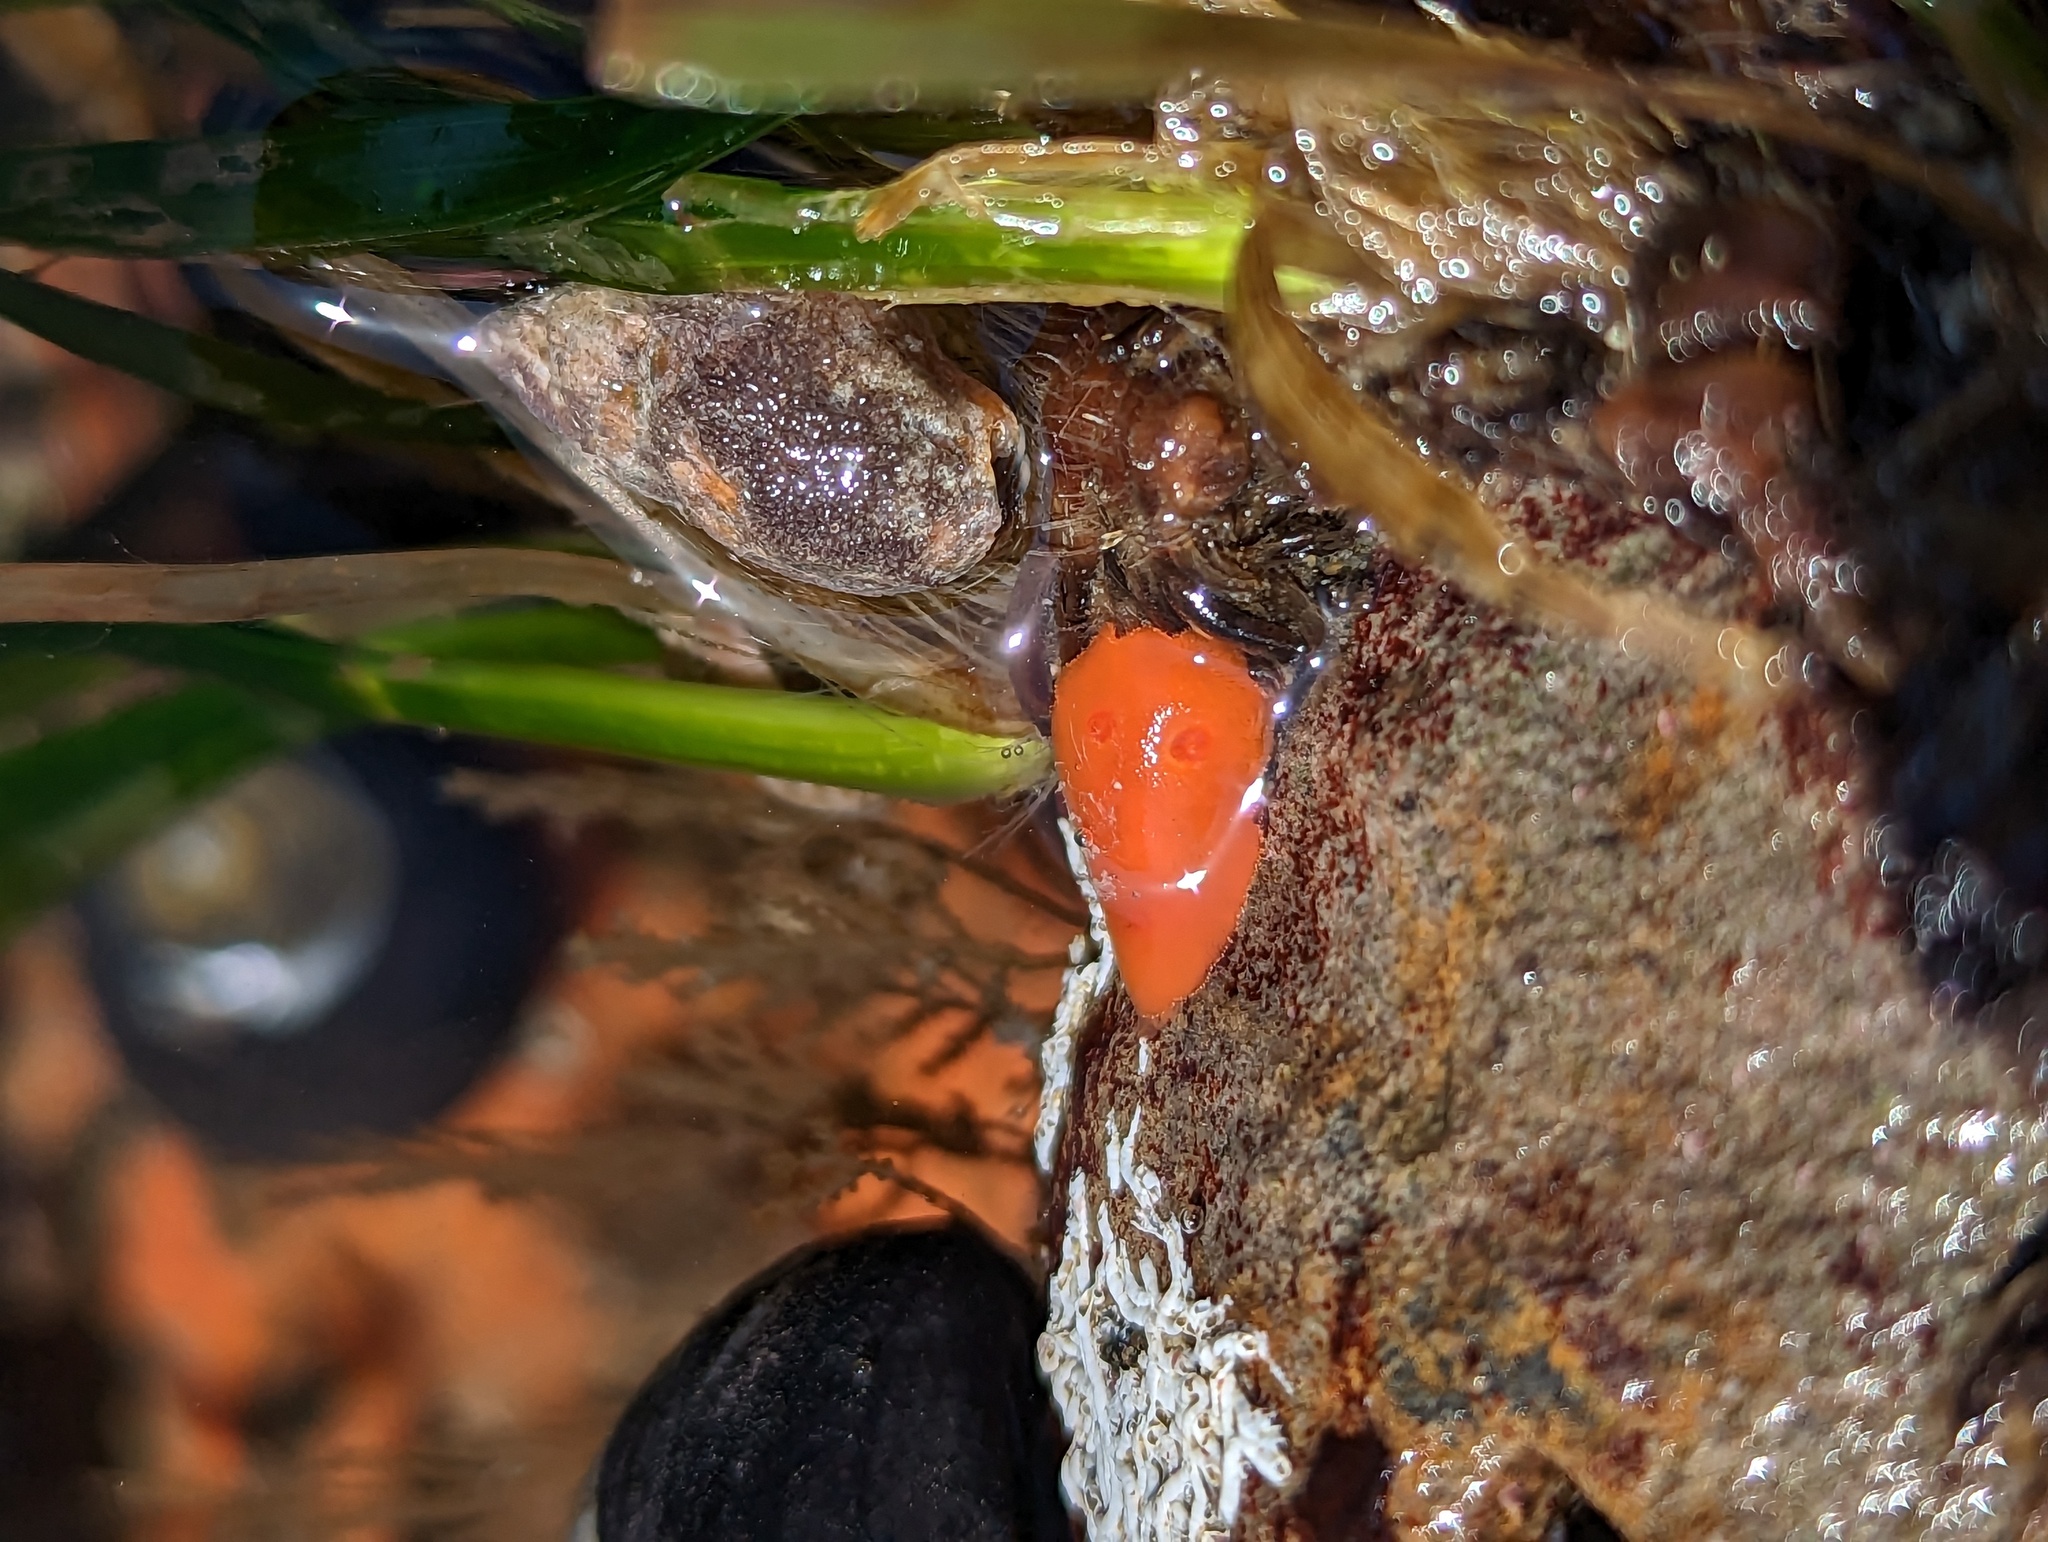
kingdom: Animalia
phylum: Mollusca
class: Gastropoda
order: Nudibranchia
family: Discodorididae
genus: Rostanga
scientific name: Rostanga pulchra
